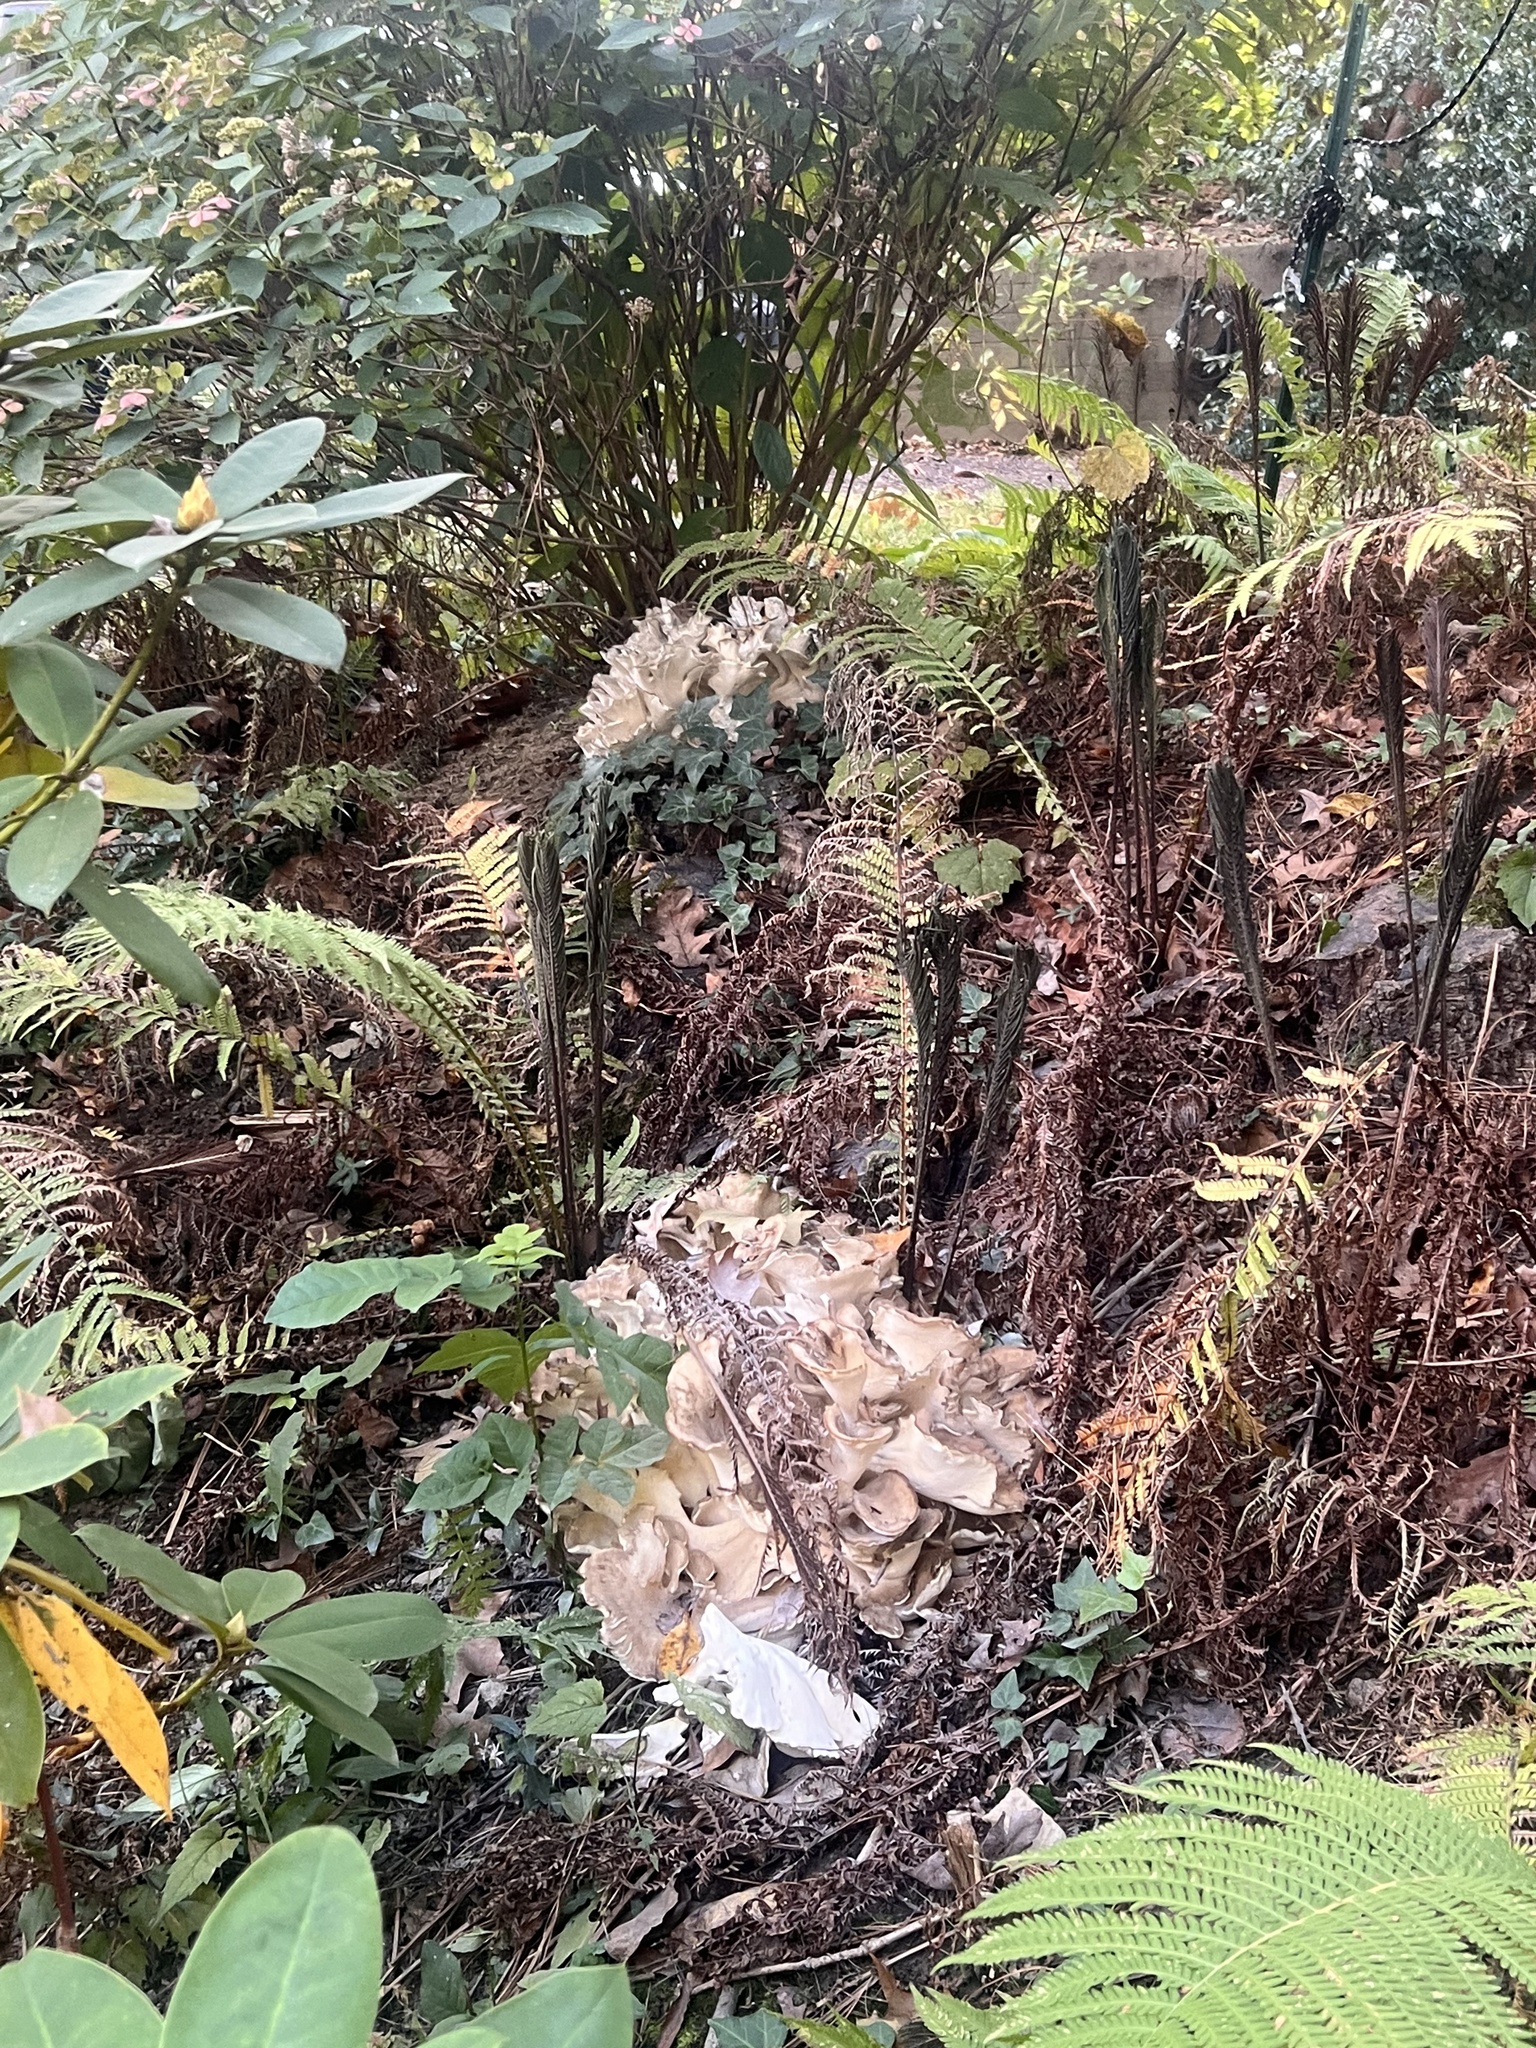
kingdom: Fungi
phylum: Basidiomycota
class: Agaricomycetes
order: Polyporales
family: Grifolaceae
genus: Grifola
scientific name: Grifola frondosa
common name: Hen of the woods
